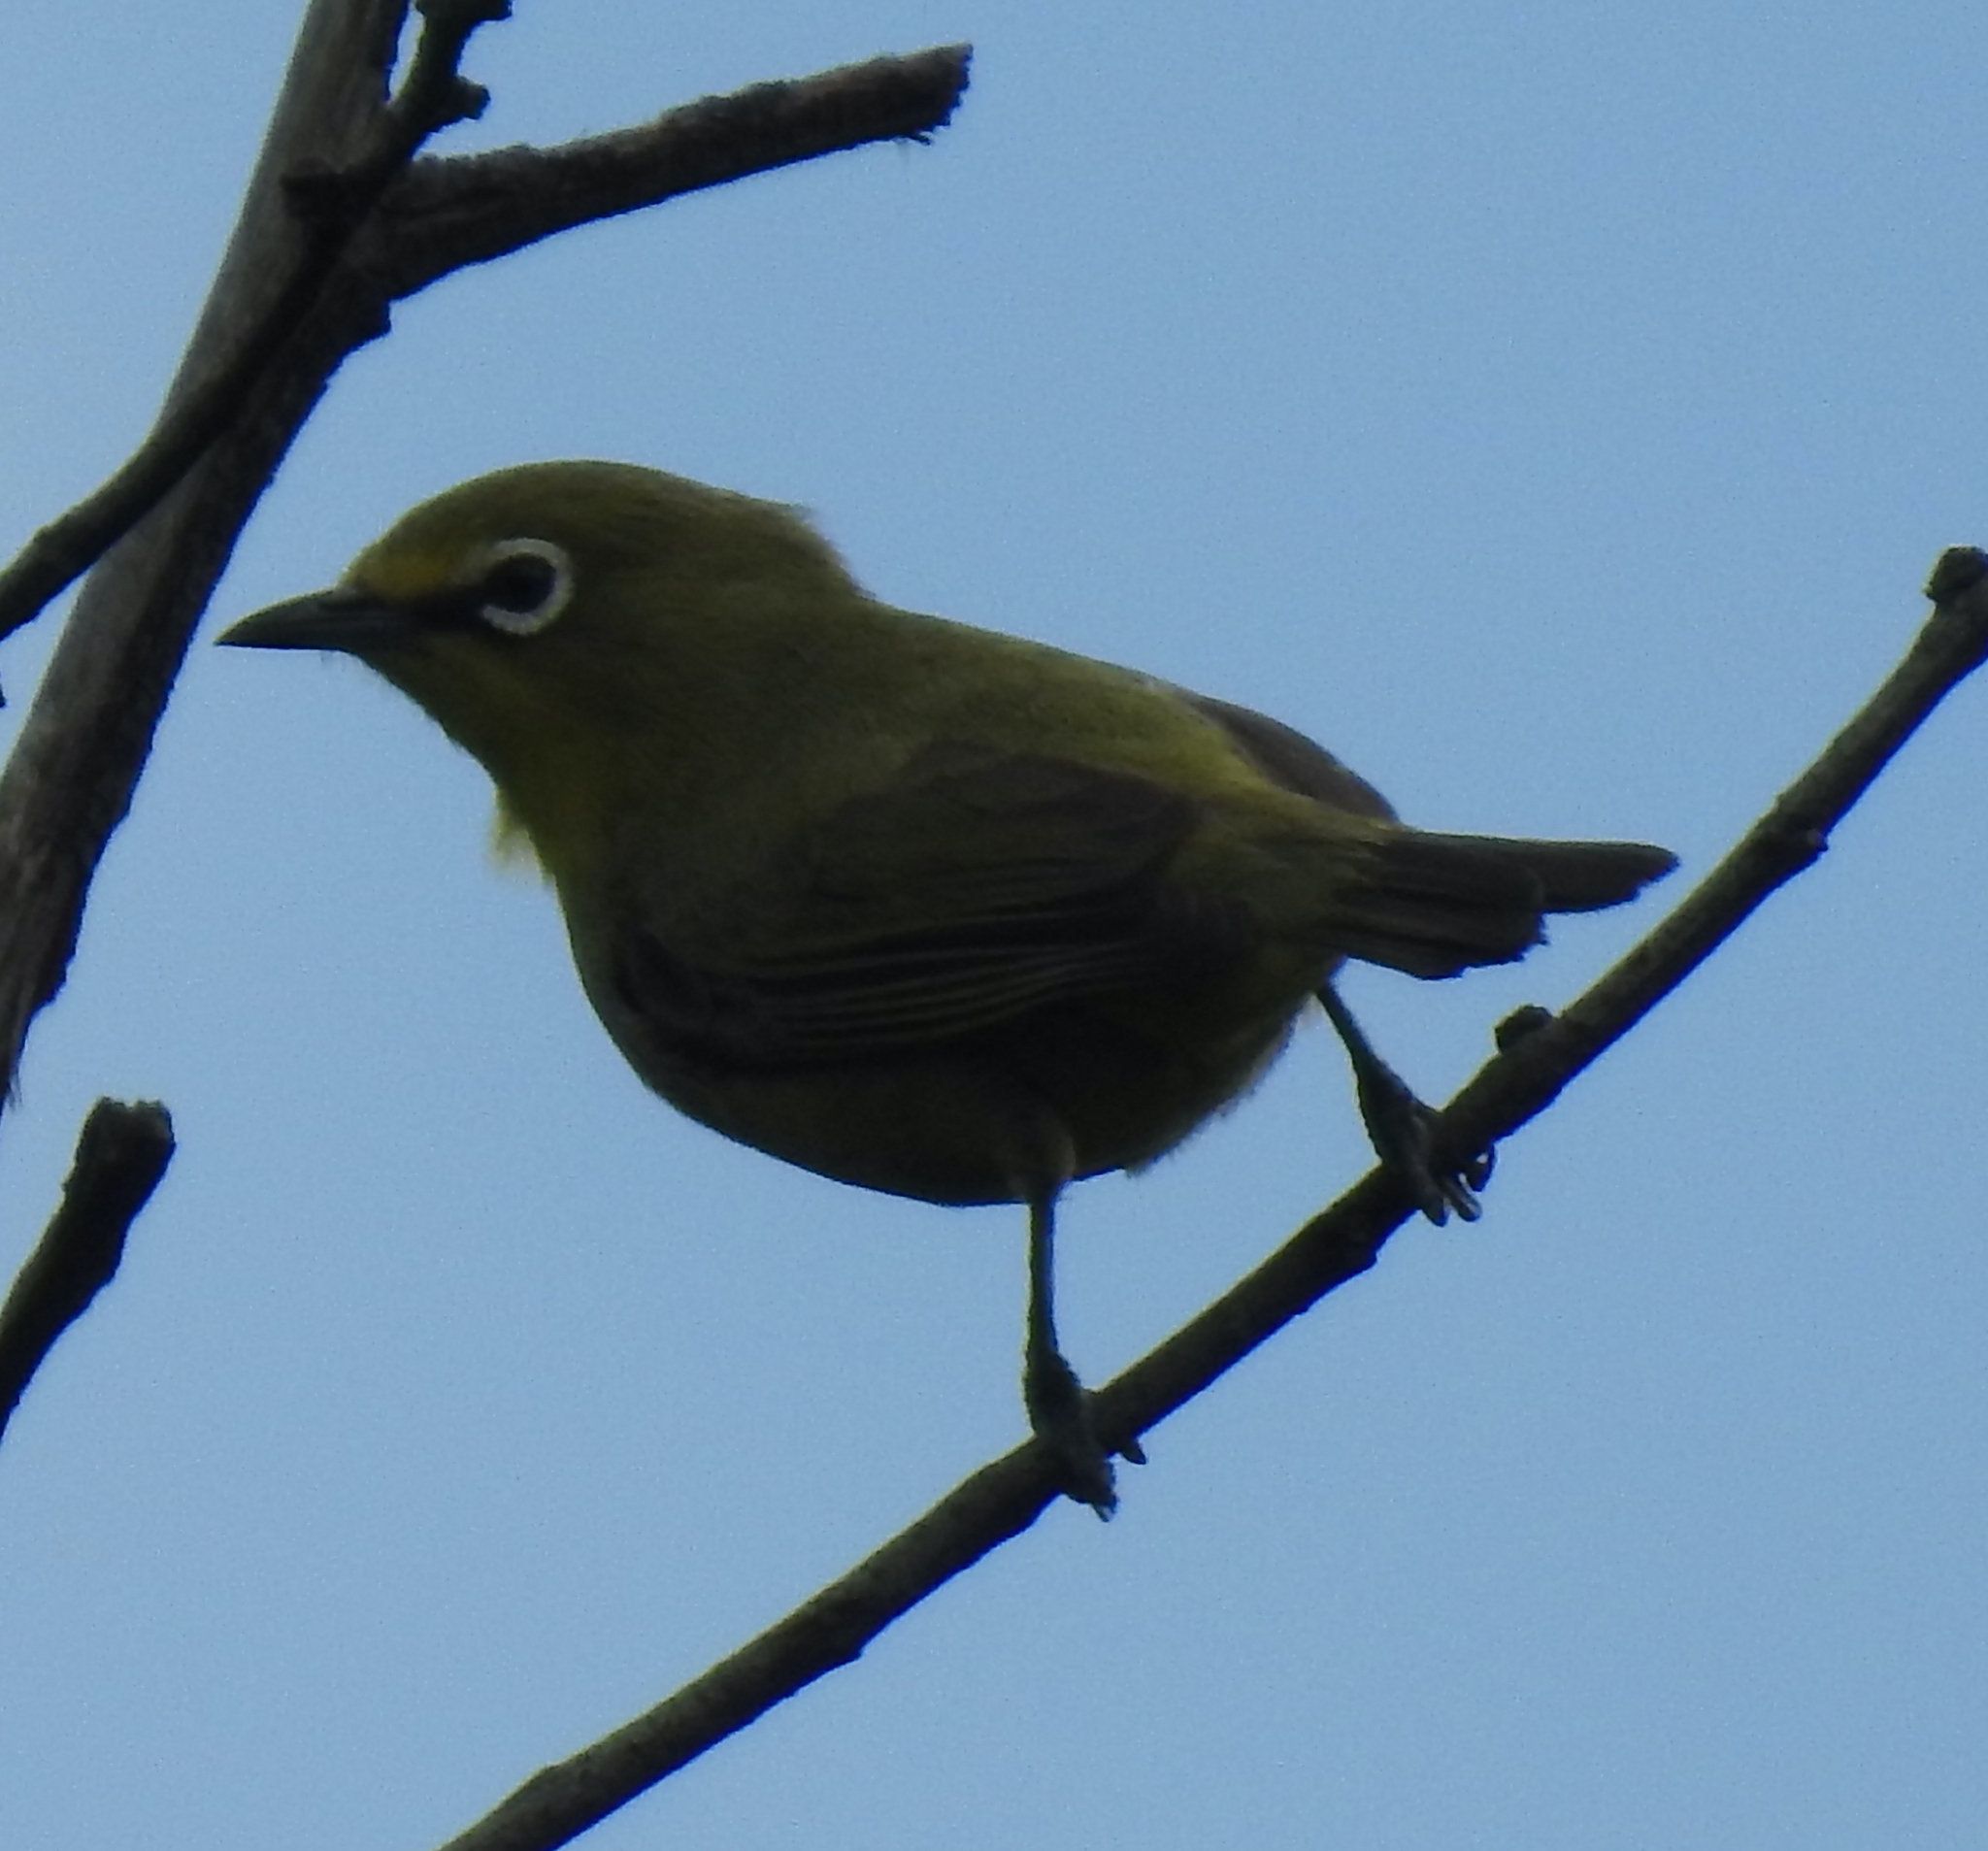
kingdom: Animalia
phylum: Chordata
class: Aves
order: Passeriformes
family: Zosteropidae
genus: Zosterops
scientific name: Zosterops virens
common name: Cape white-eye
